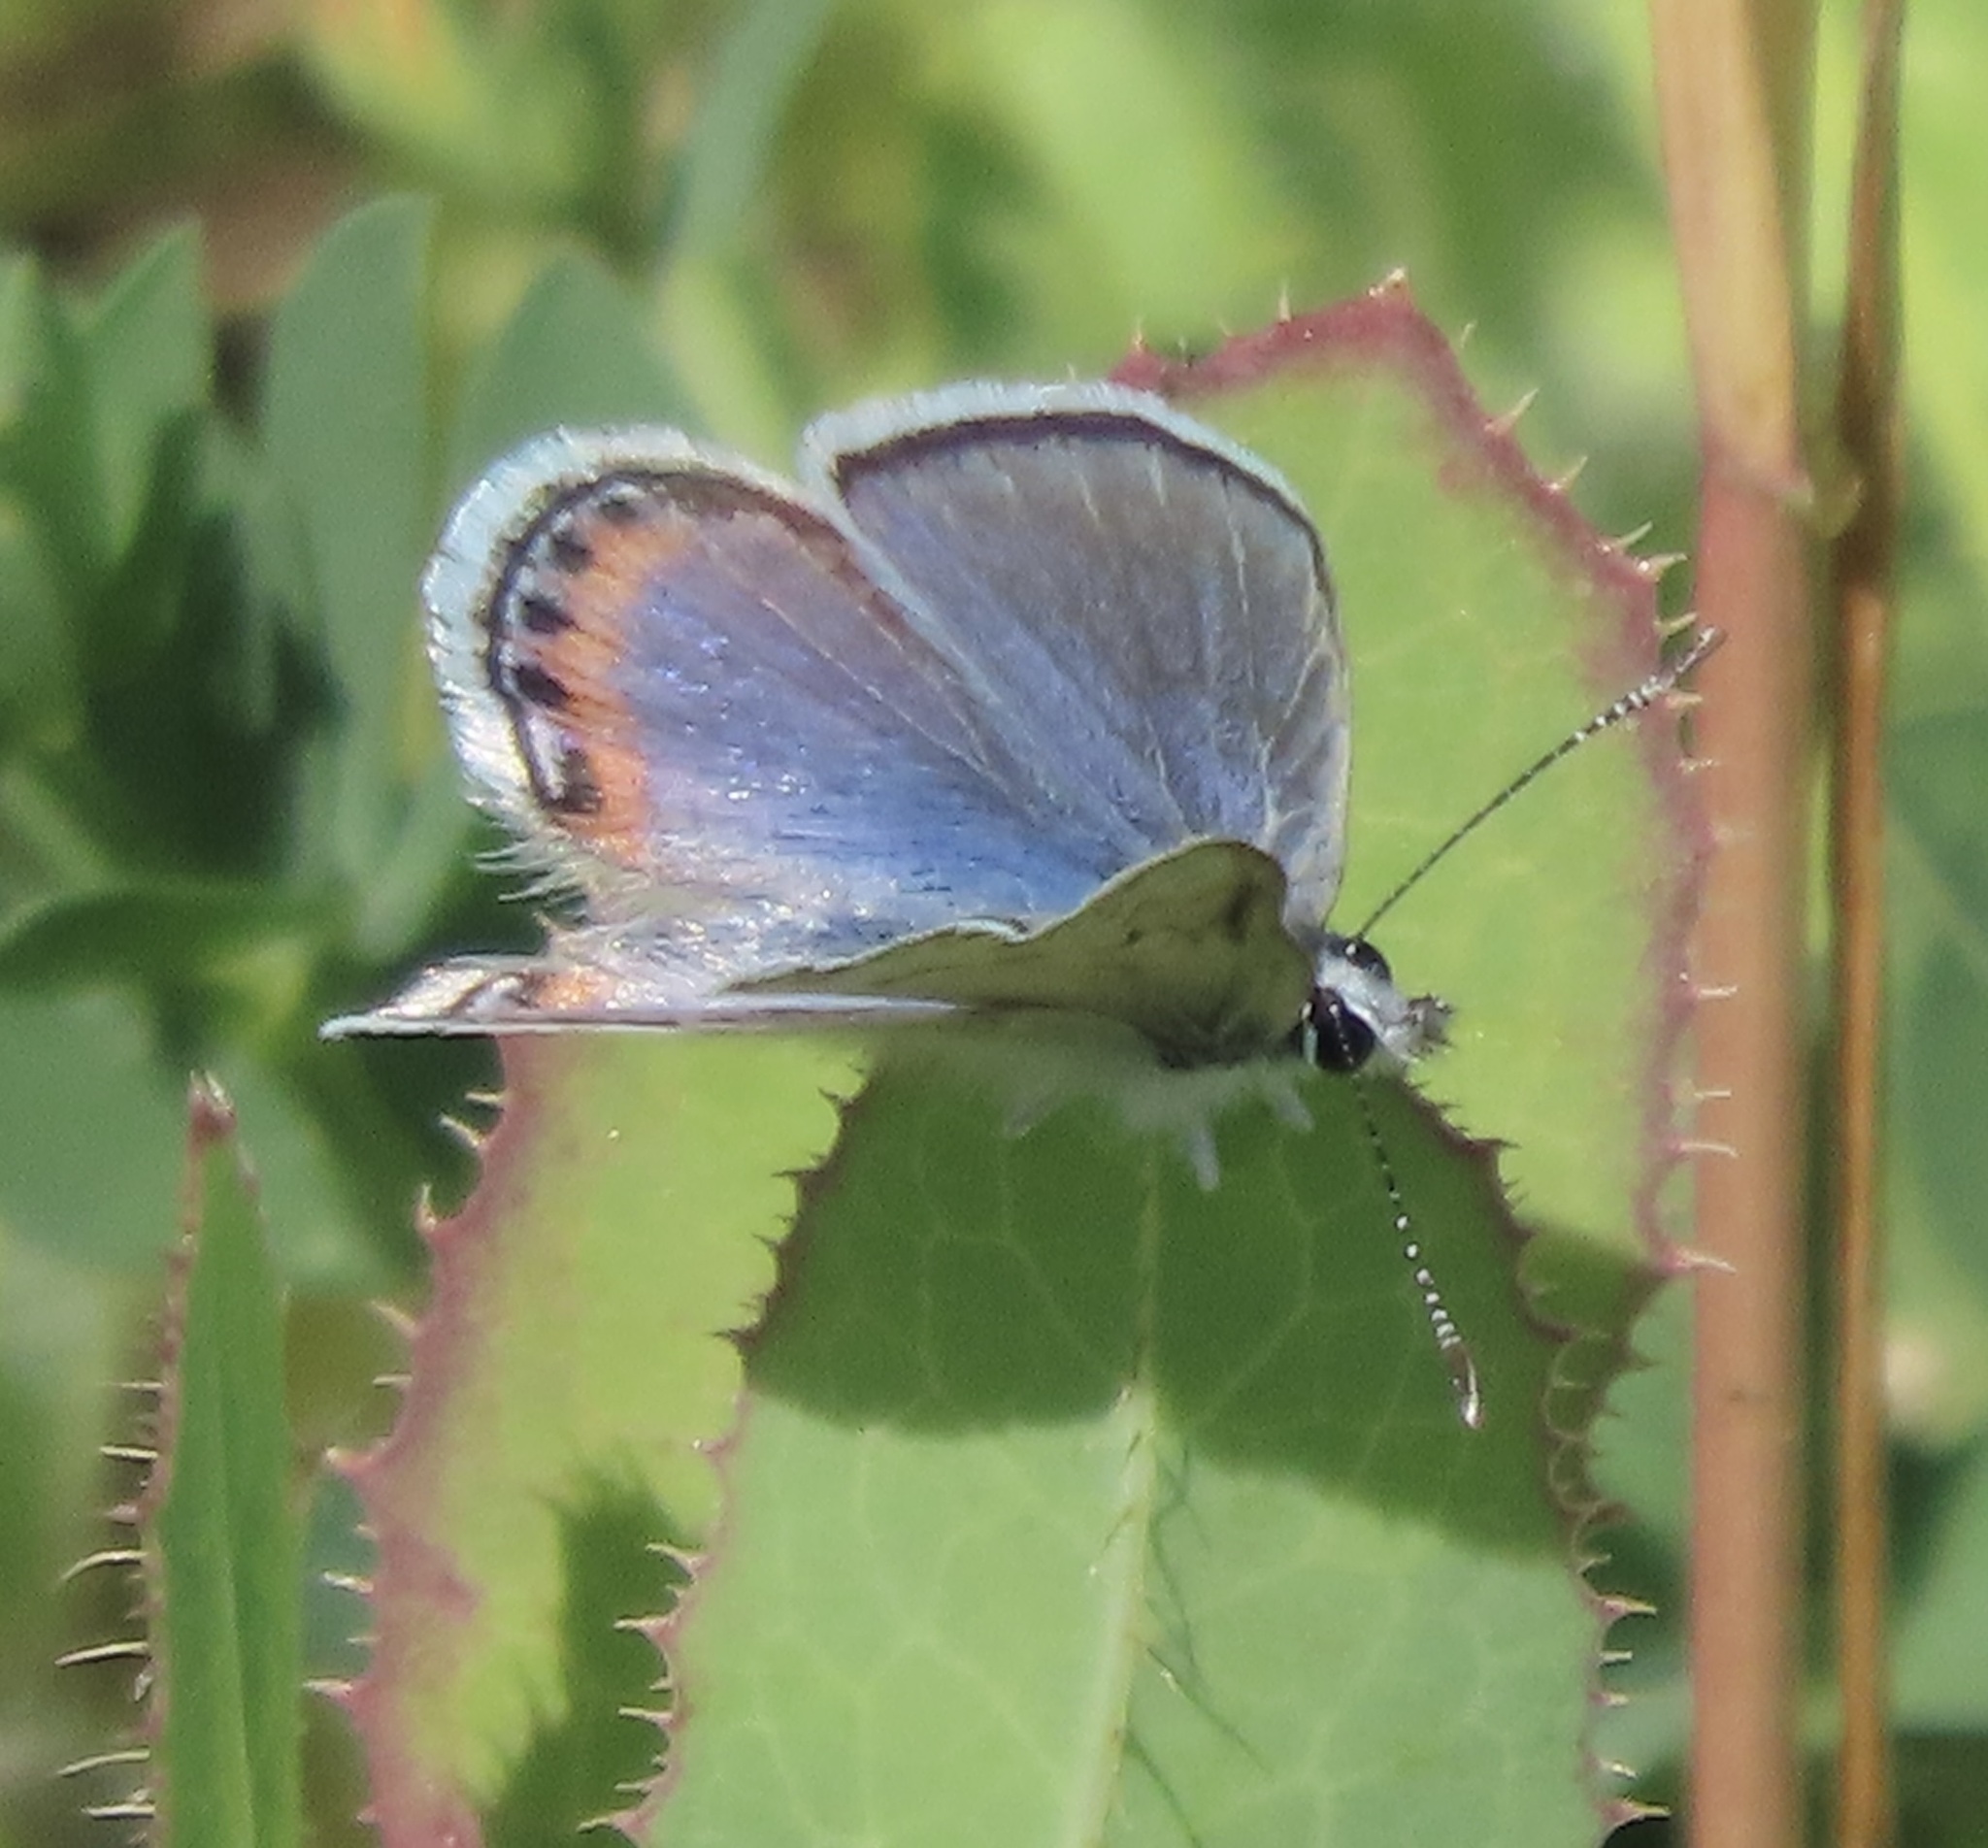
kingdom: Animalia
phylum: Arthropoda
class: Insecta
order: Lepidoptera
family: Lycaenidae
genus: Icaricia
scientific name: Icaricia acmon
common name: Acmon blue
